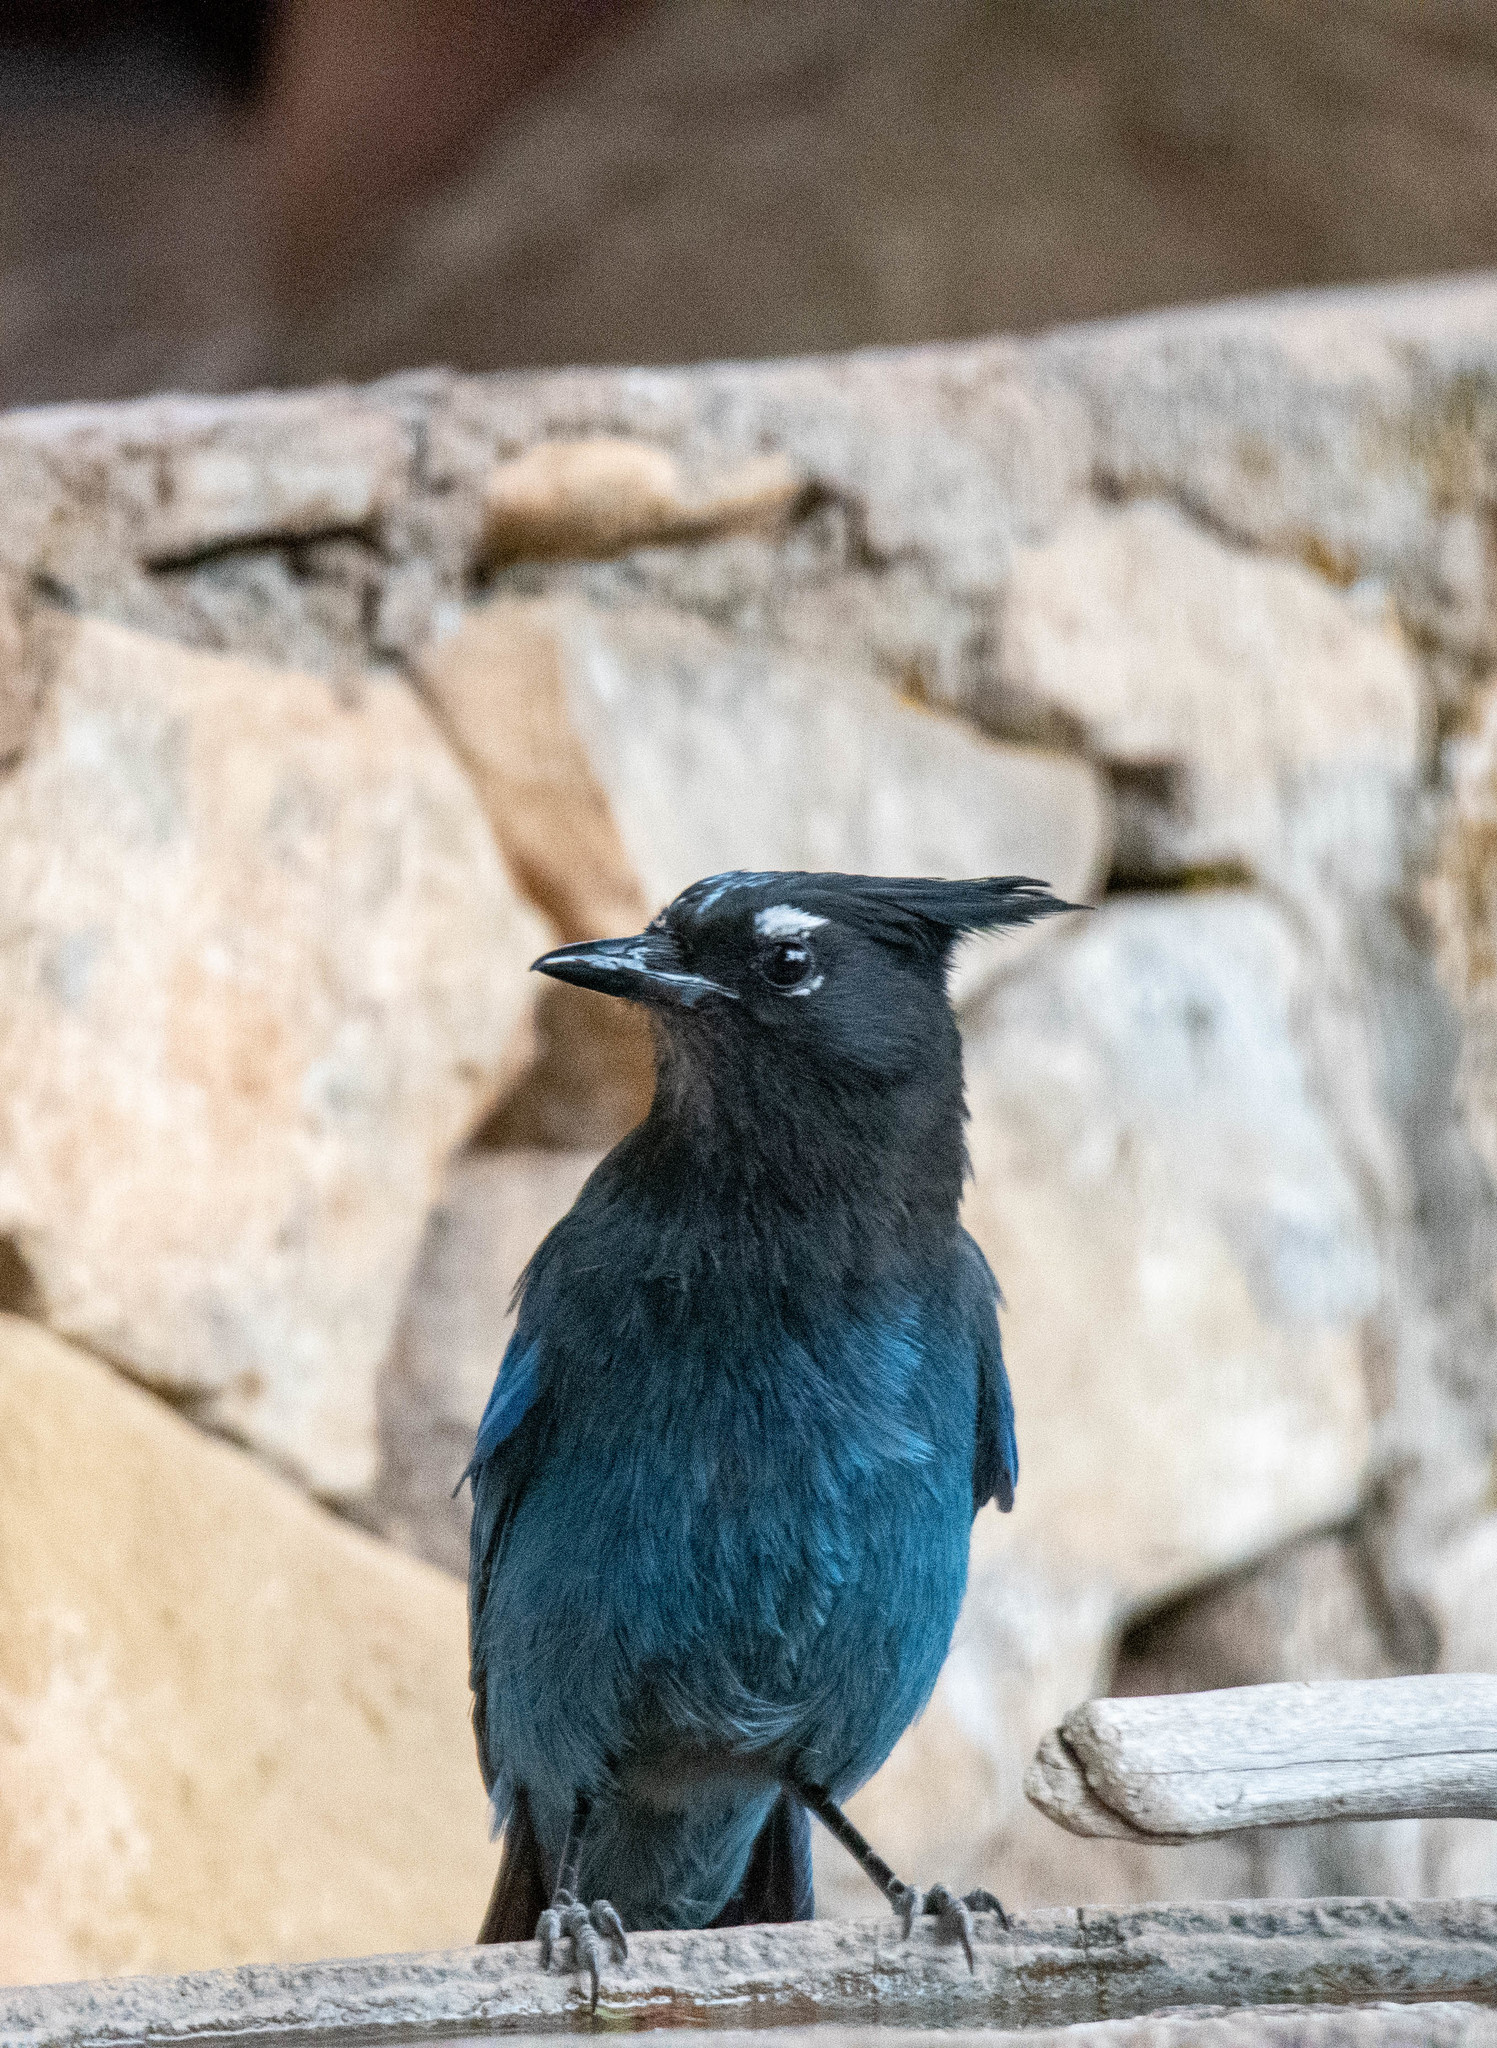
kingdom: Animalia
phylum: Chordata
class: Aves
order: Passeriformes
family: Corvidae
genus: Cyanocitta
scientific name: Cyanocitta stelleri
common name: Steller's jay
